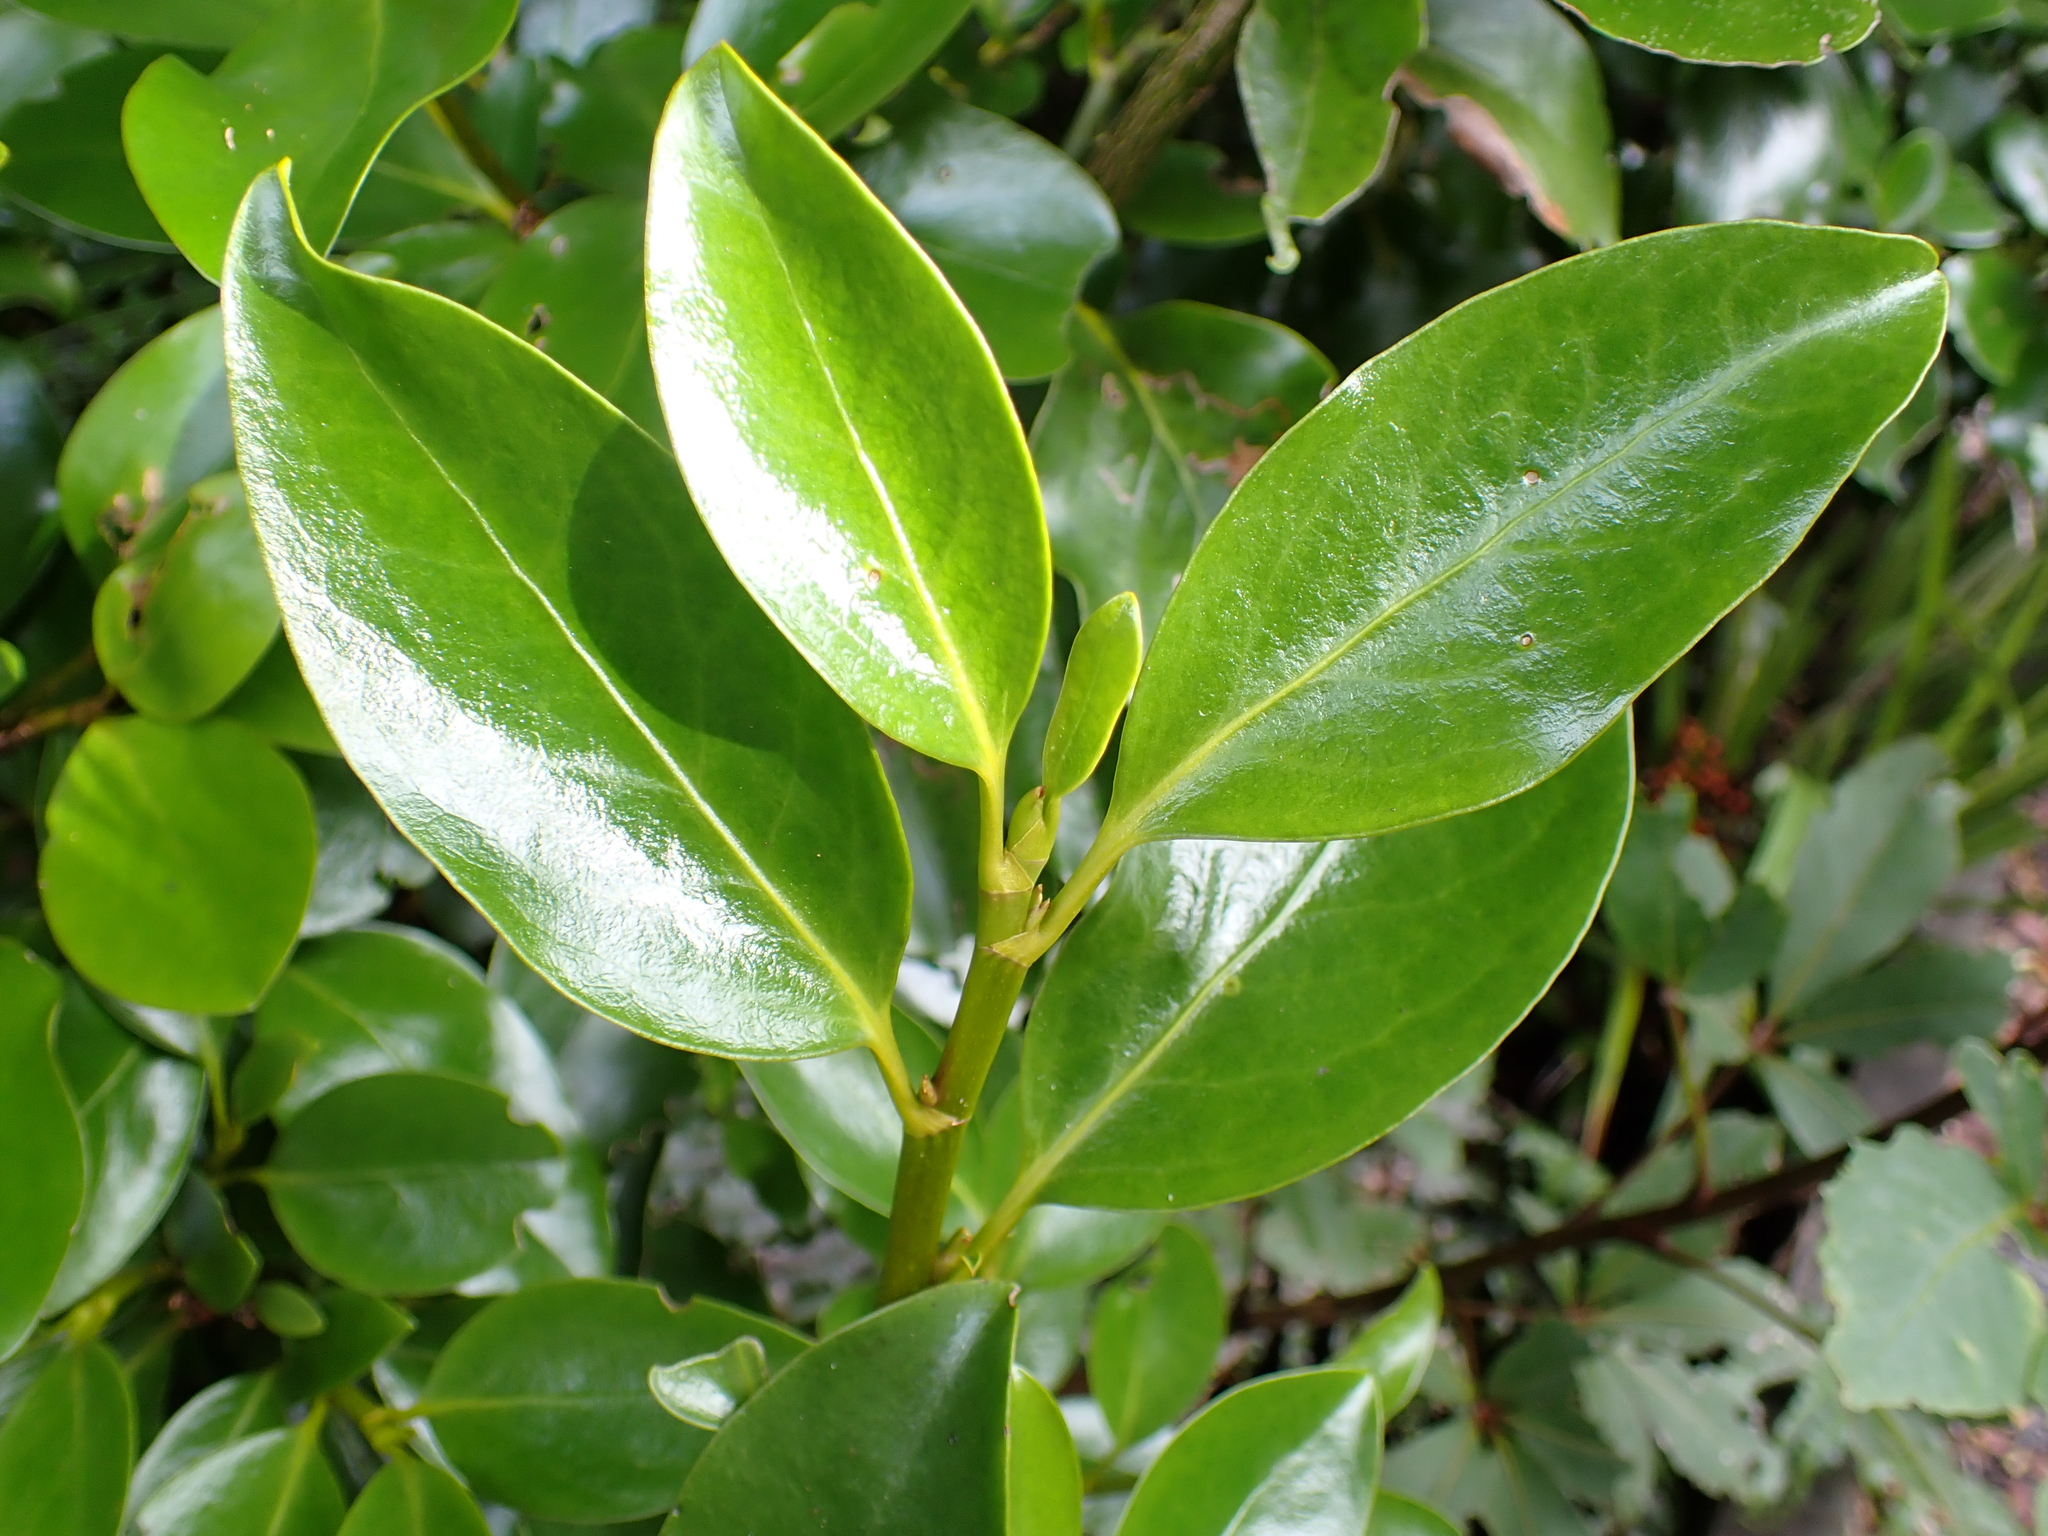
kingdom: Plantae
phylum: Tracheophyta
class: Magnoliopsida
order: Apiales
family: Griseliniaceae
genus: Griselinia
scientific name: Griselinia littoralis
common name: New zealand broadleaf
